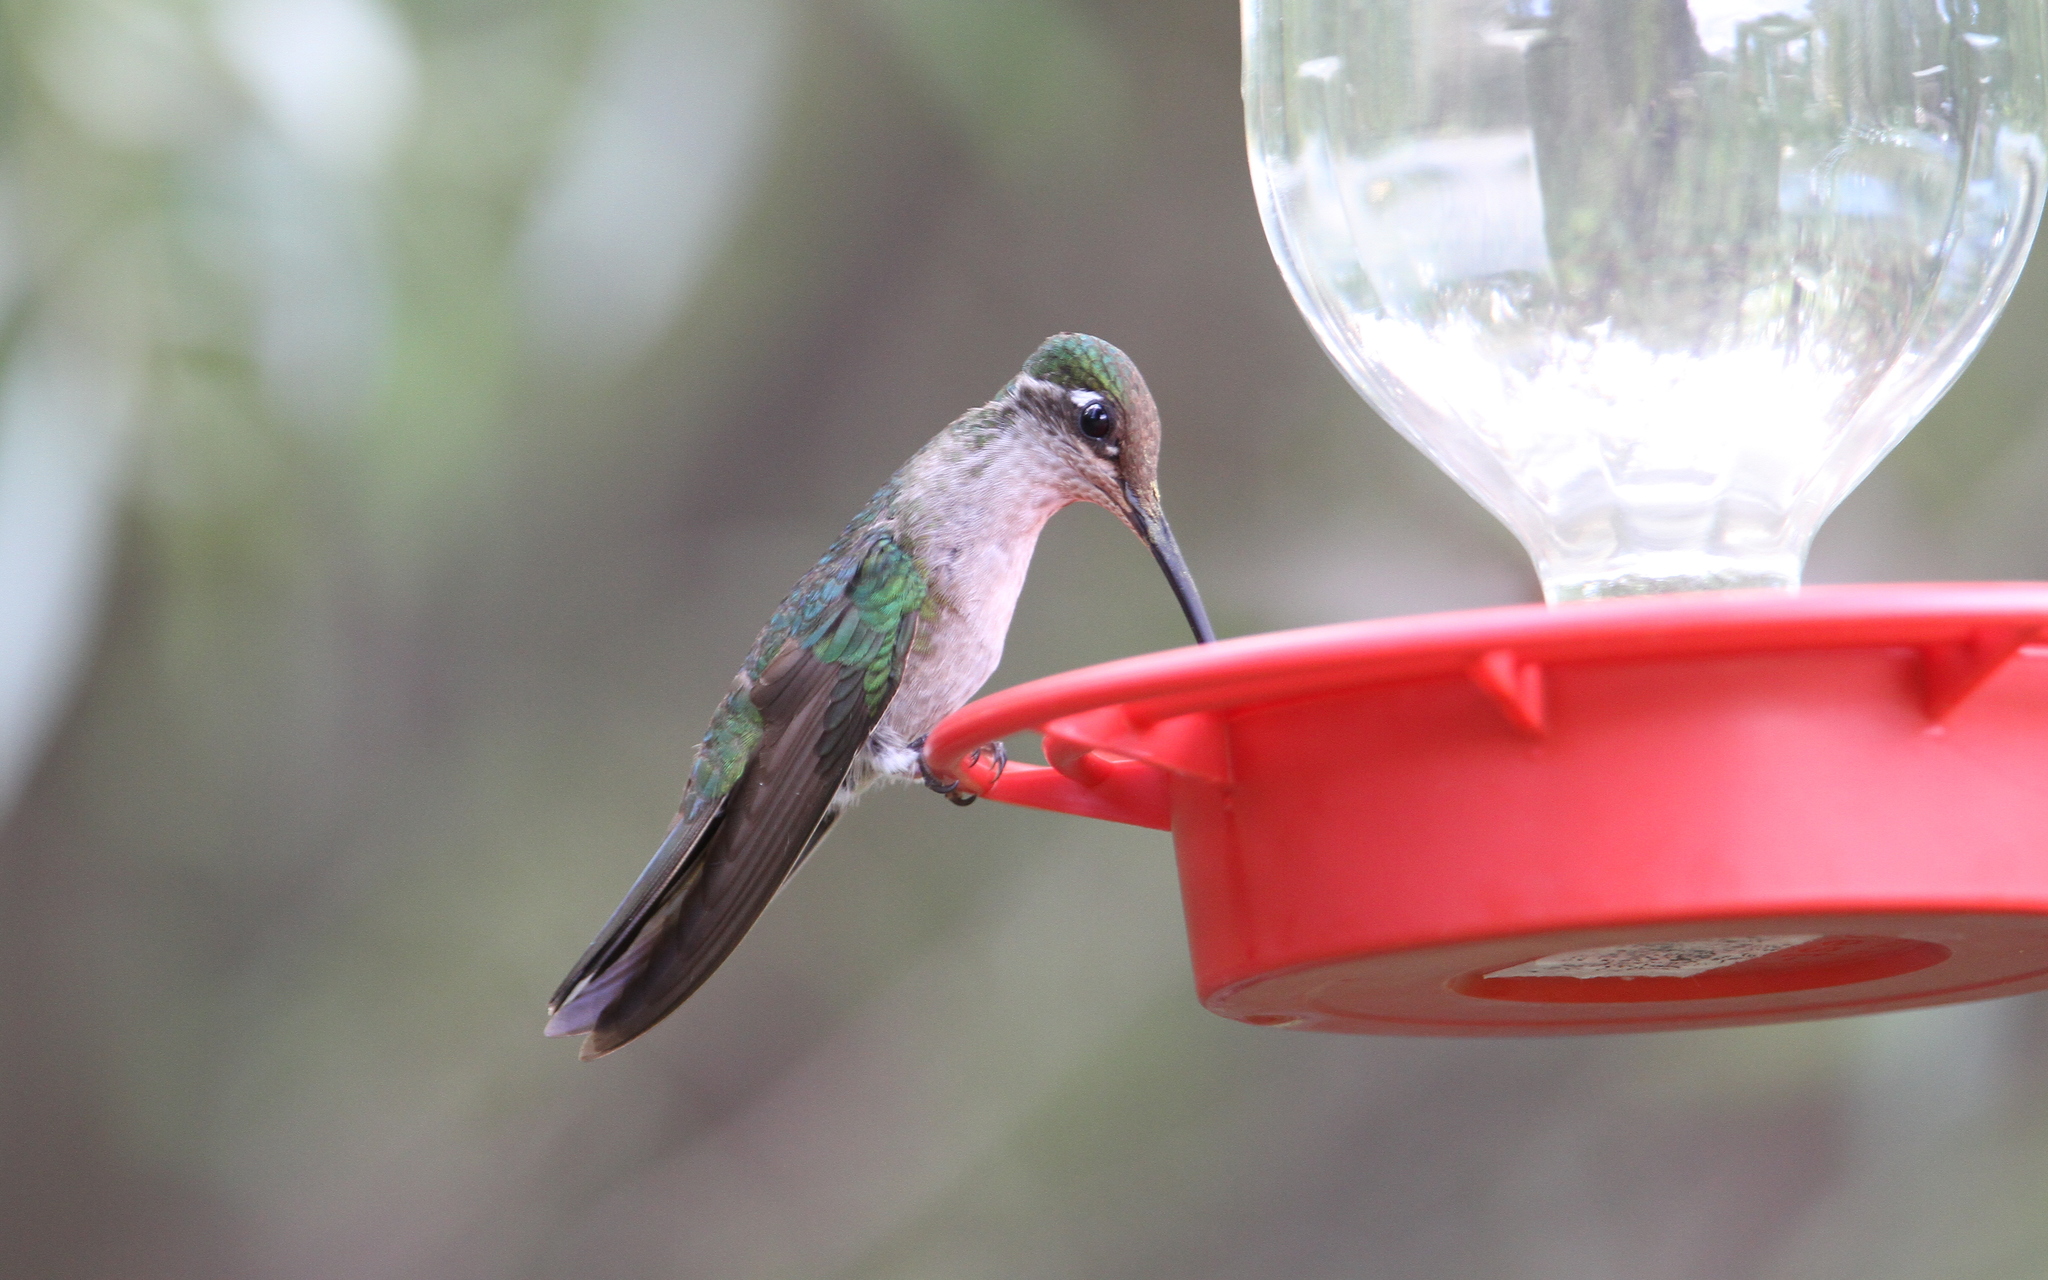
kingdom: Animalia
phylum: Chordata
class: Aves
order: Apodiformes
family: Trochilidae
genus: Eugenes
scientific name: Eugenes fulgens
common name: Magnificent hummingbird
